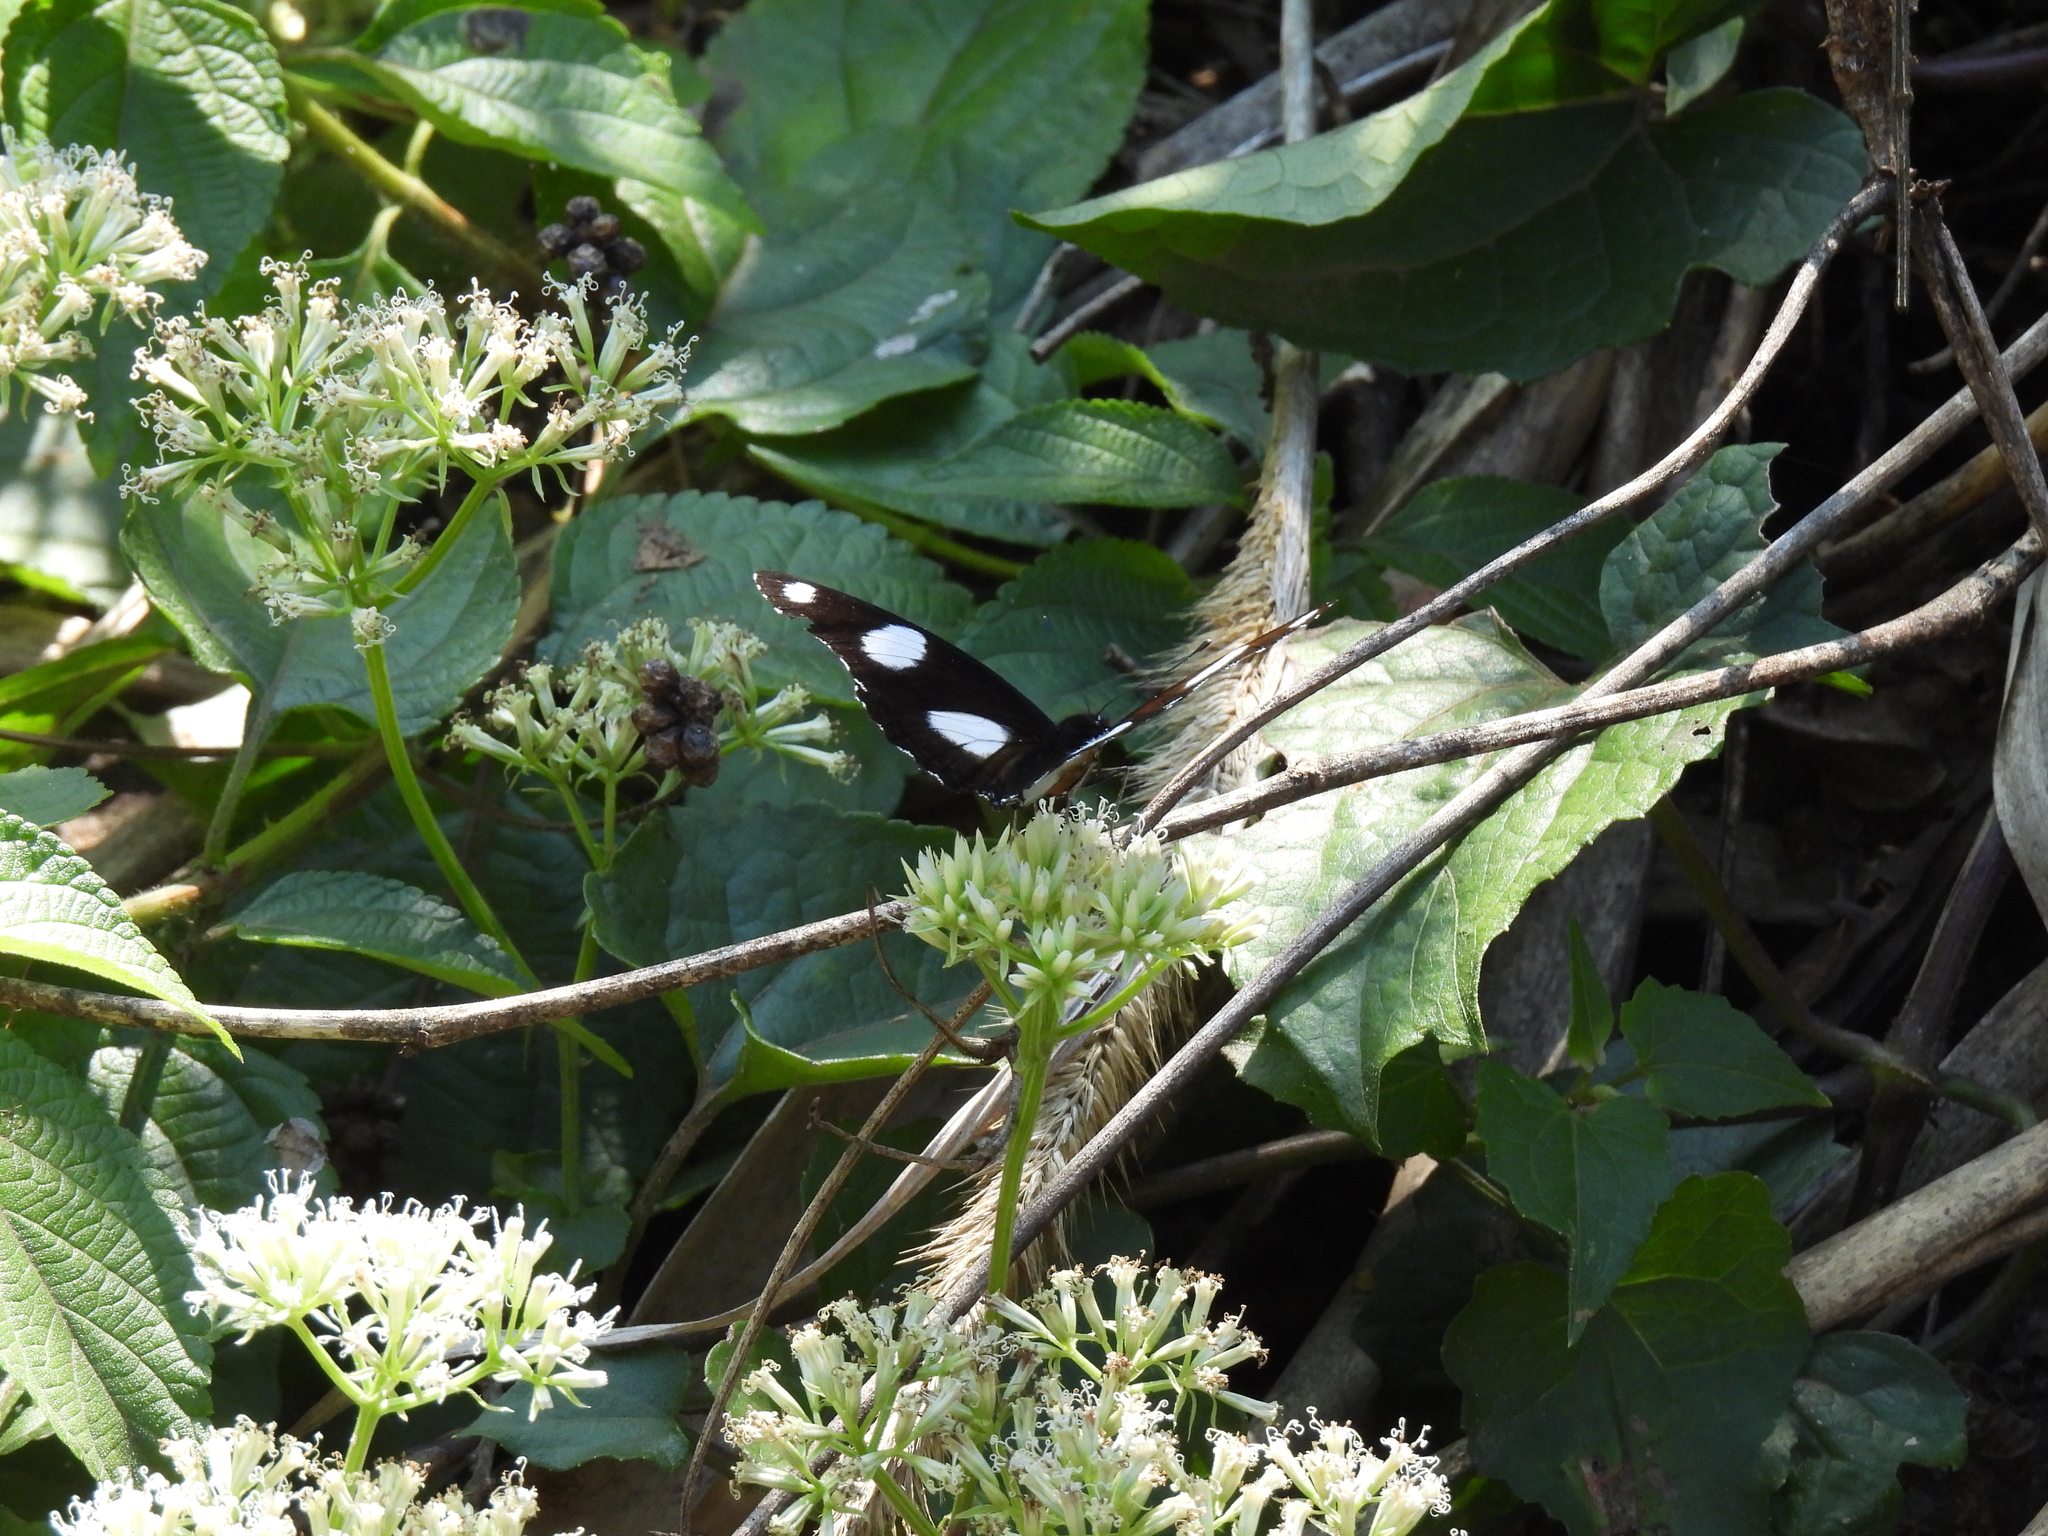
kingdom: Animalia
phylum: Arthropoda
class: Insecta
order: Lepidoptera
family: Nymphalidae
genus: Hypolimnas
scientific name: Hypolimnas misippus
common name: False plain tiger
